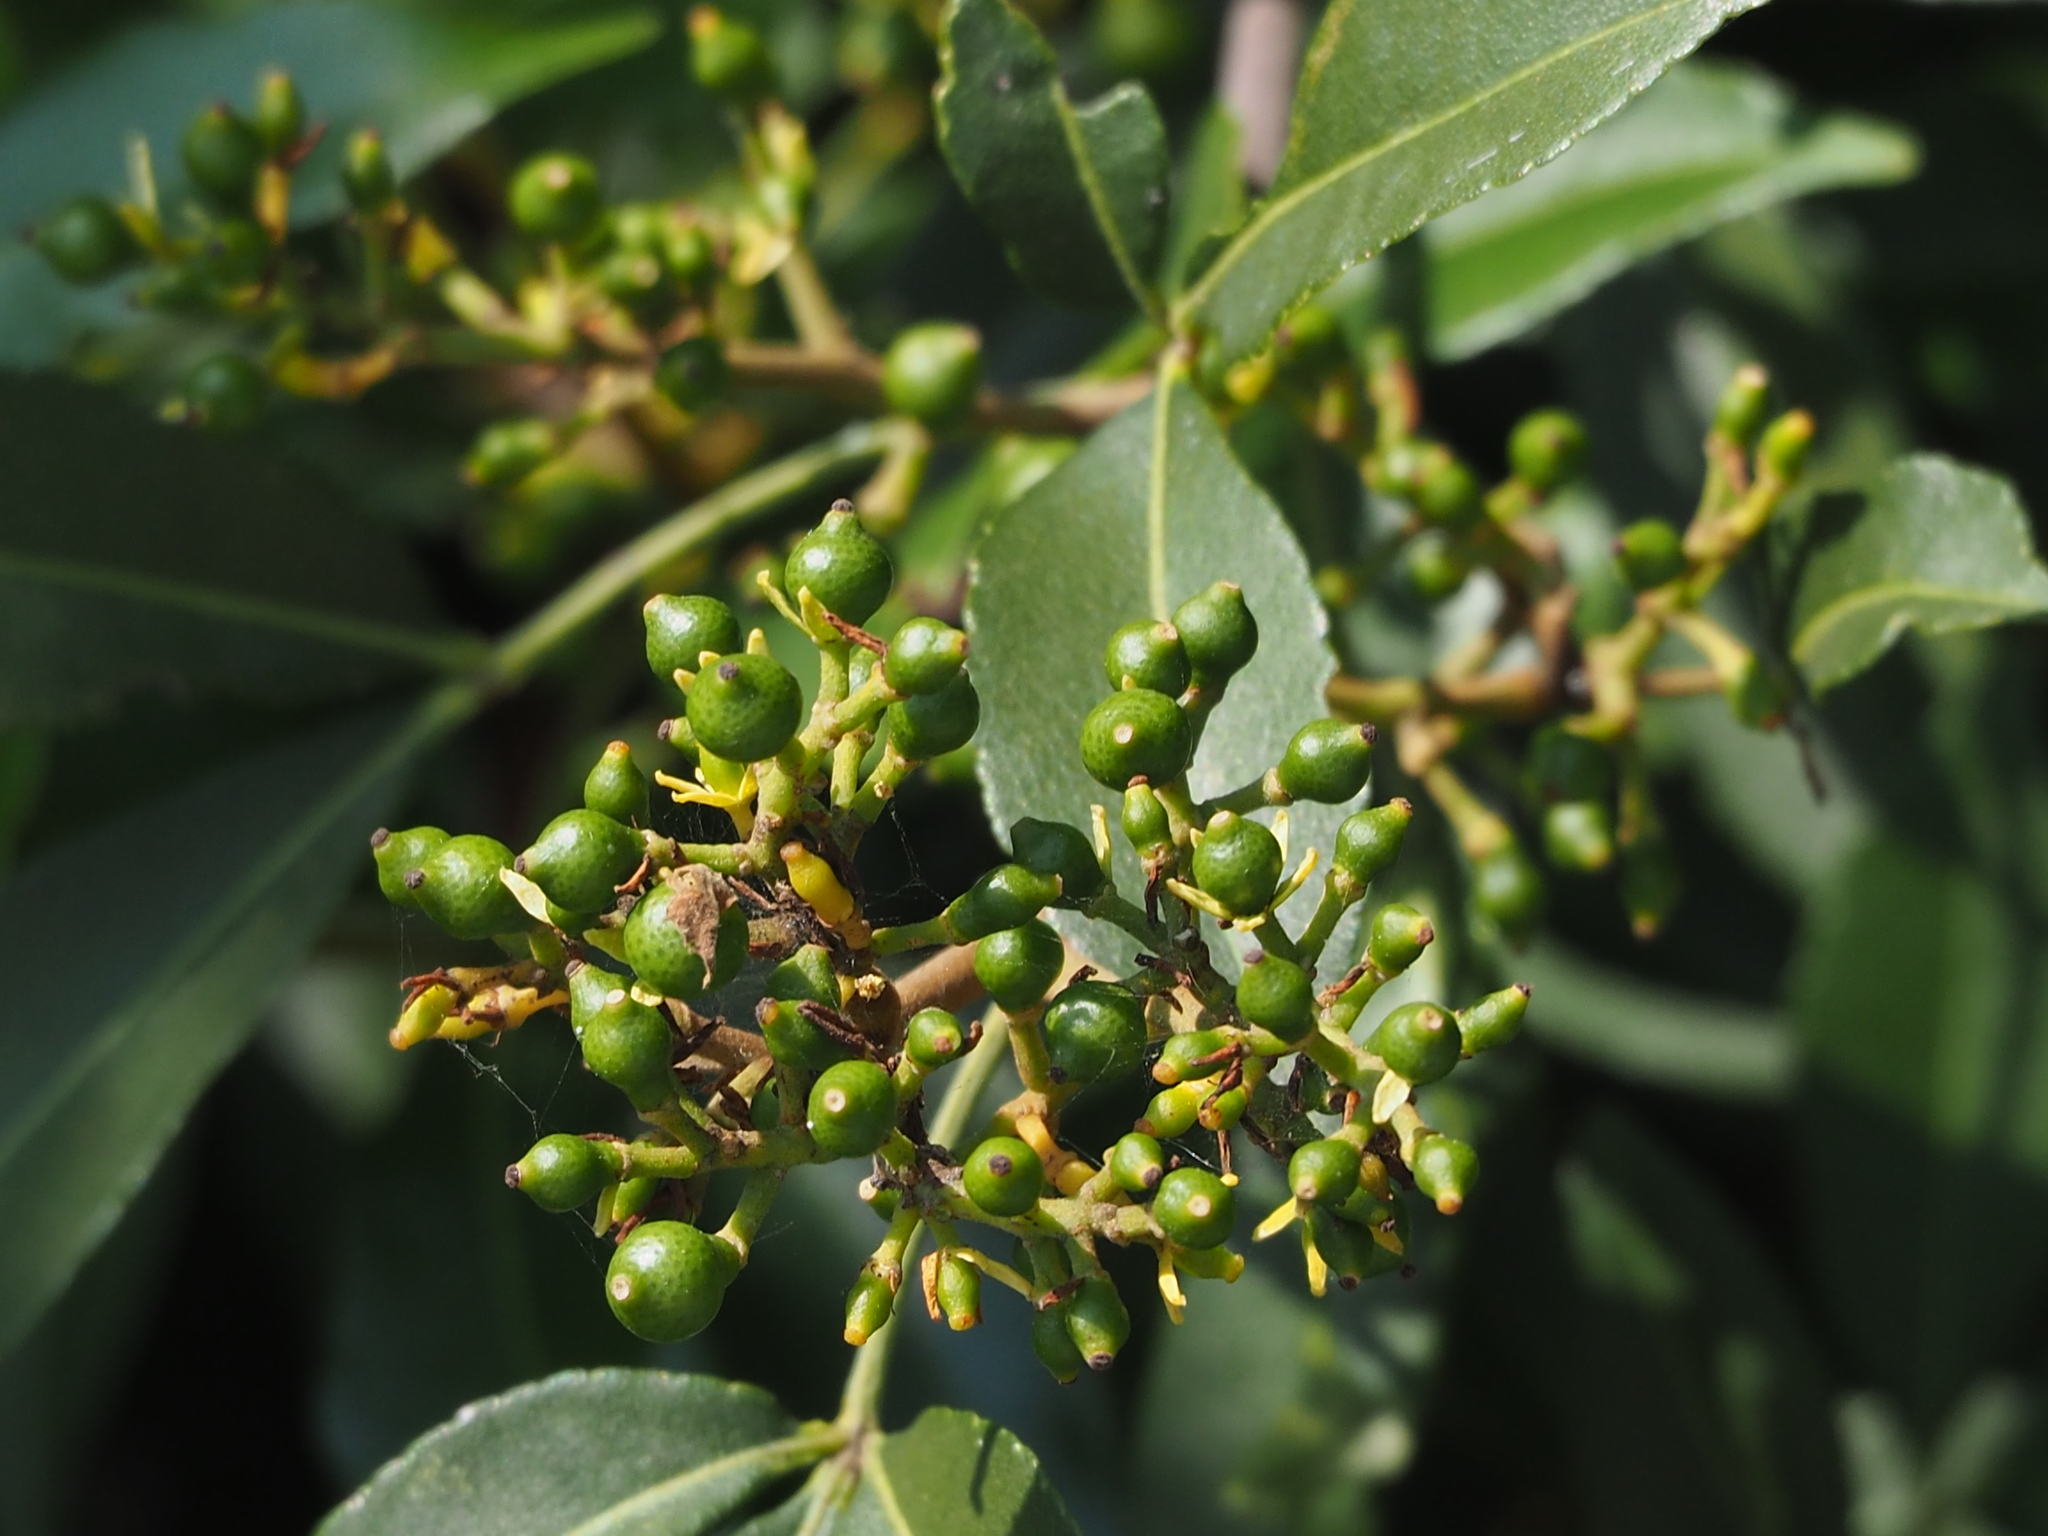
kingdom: Plantae
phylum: Tracheophyta
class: Magnoliopsida
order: Sapindales
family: Rutaceae
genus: Zanthoxylum
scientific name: Zanthoxylum asiaticum
